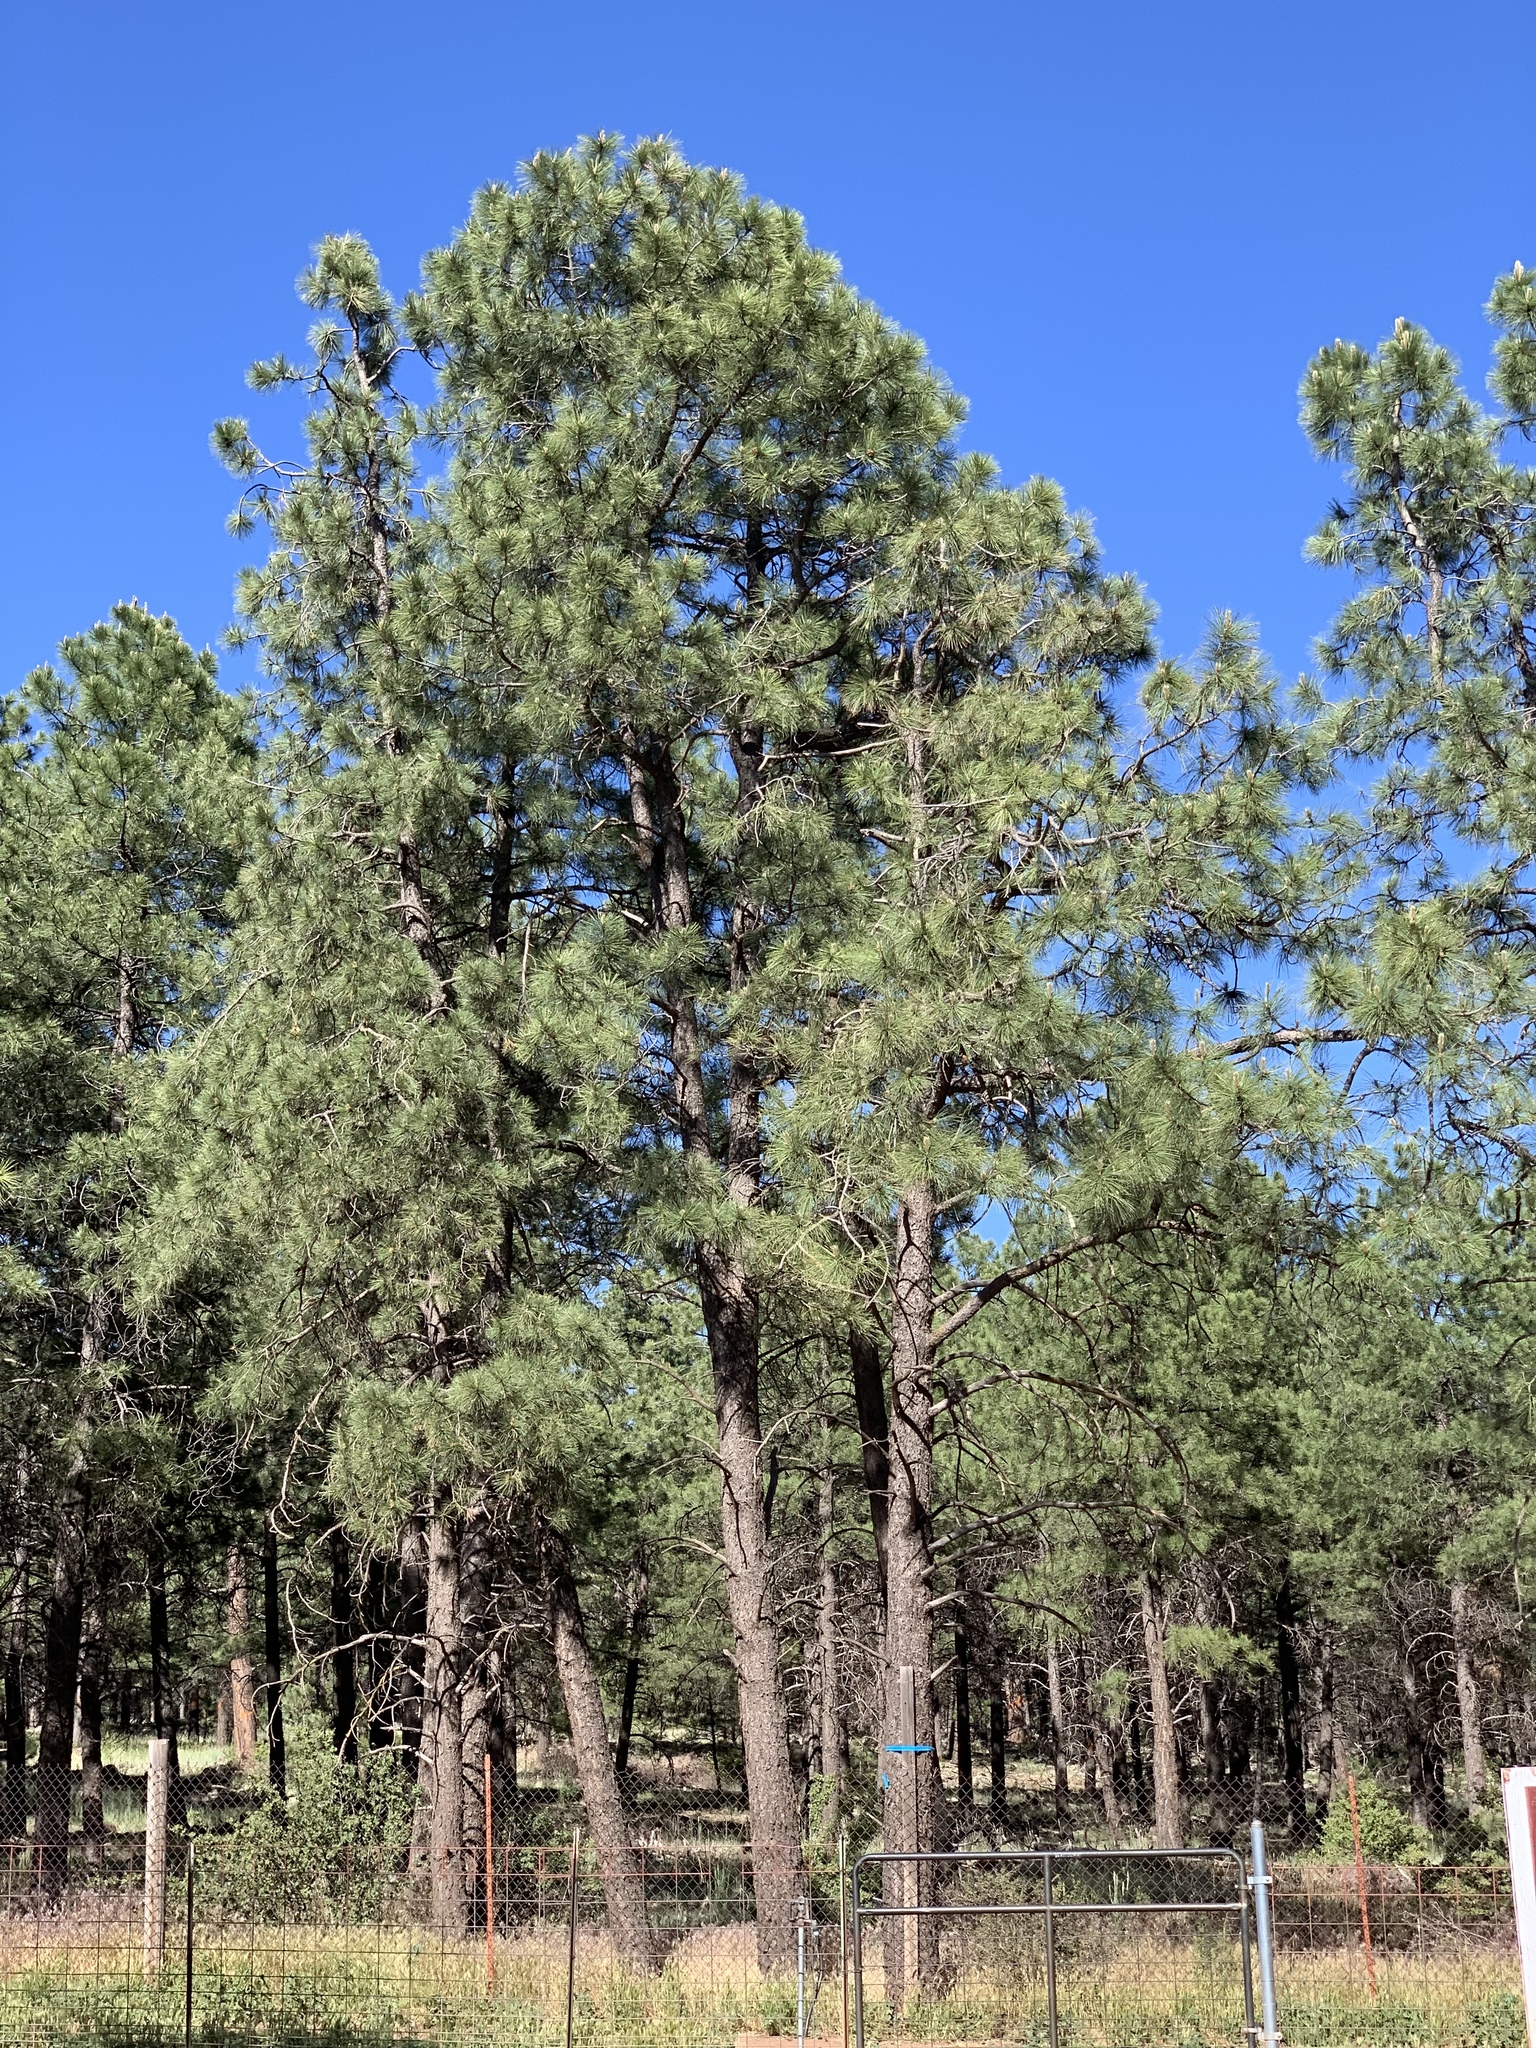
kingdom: Plantae
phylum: Tracheophyta
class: Pinopsida
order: Pinales
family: Pinaceae
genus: Pinus
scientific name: Pinus ponderosa
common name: Western yellow-pine
